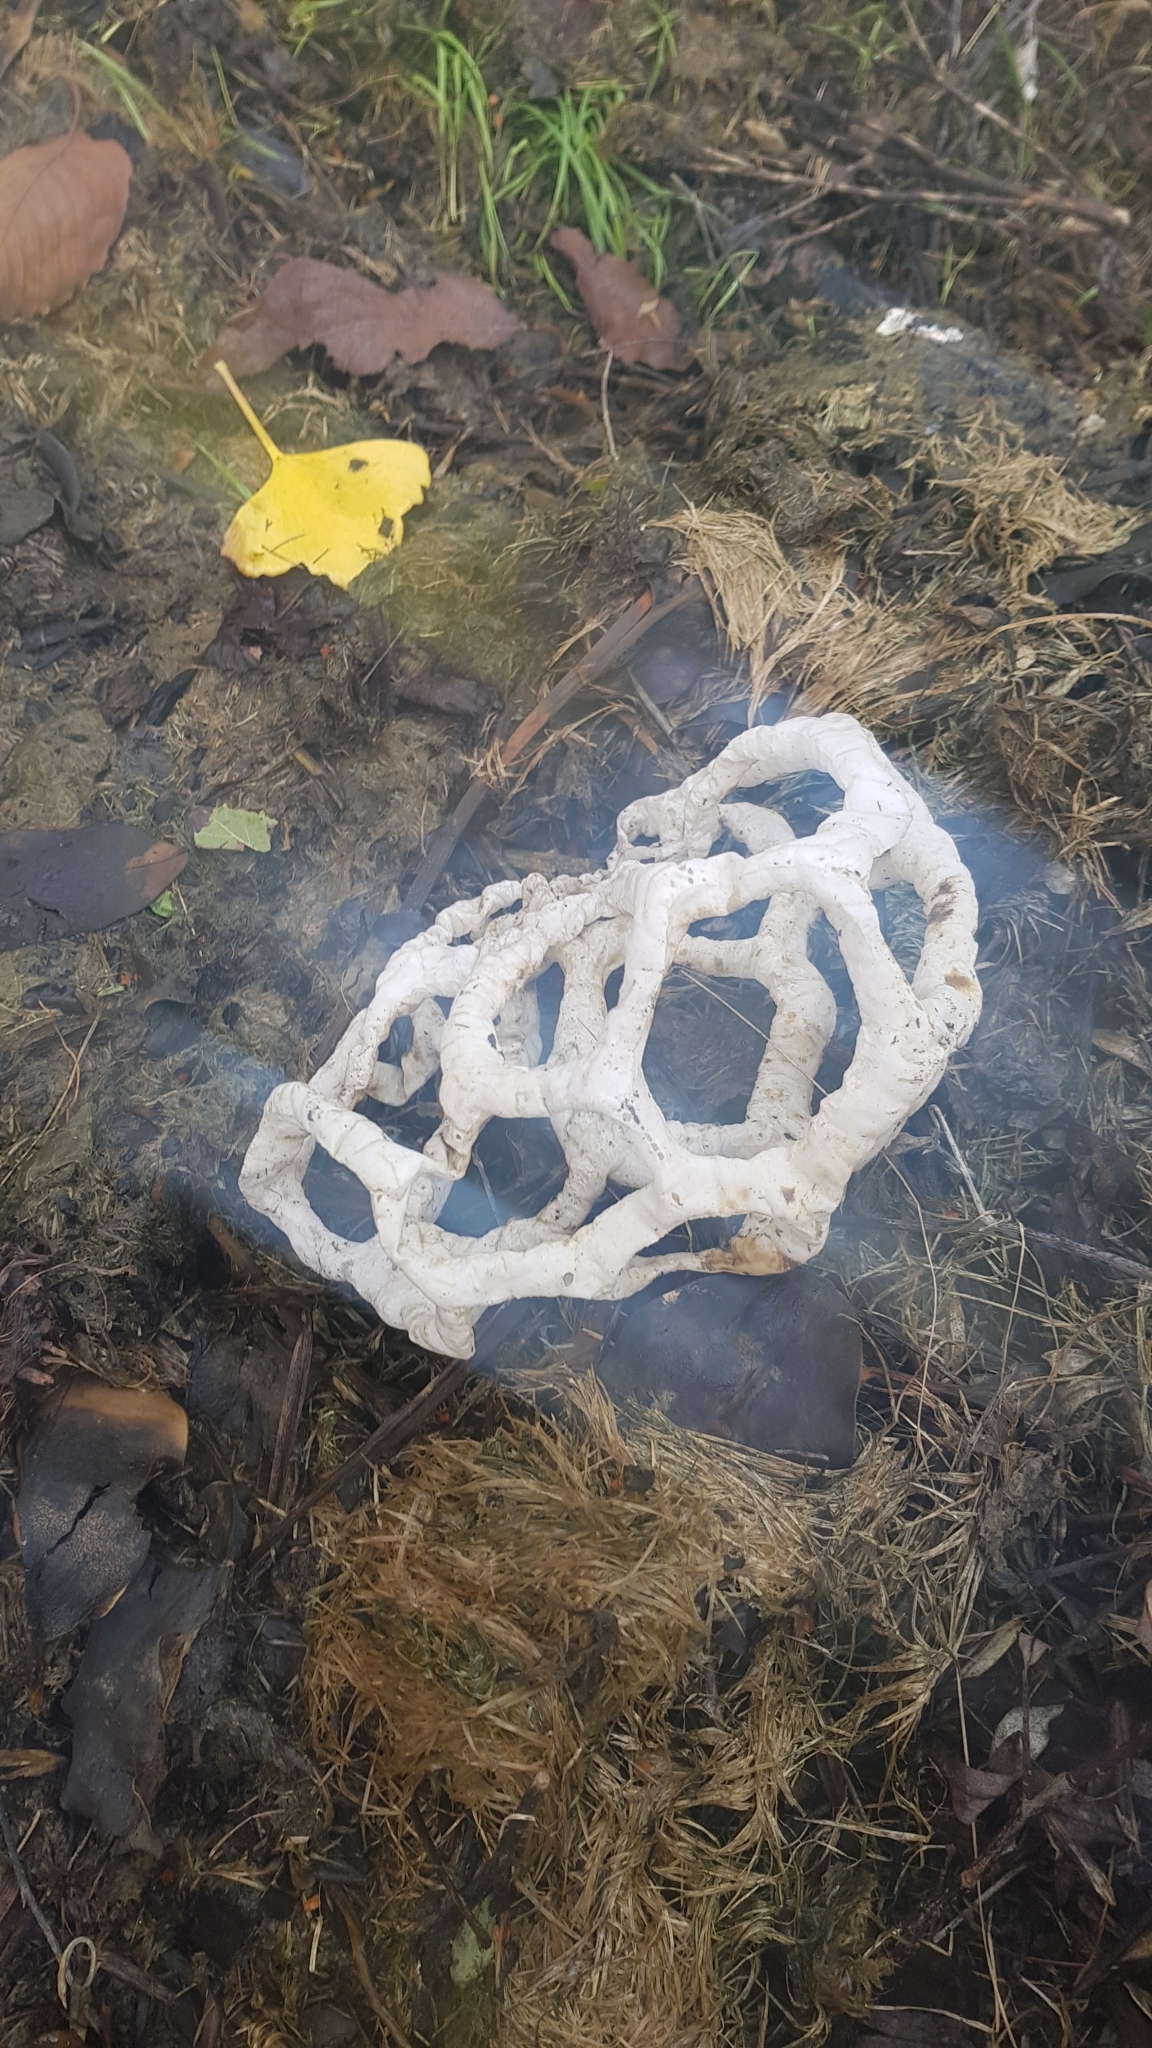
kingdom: Fungi
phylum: Basidiomycota
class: Agaricomycetes
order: Phallales
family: Phallaceae
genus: Ileodictyon
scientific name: Ileodictyon cibarium
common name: Basket fungus
